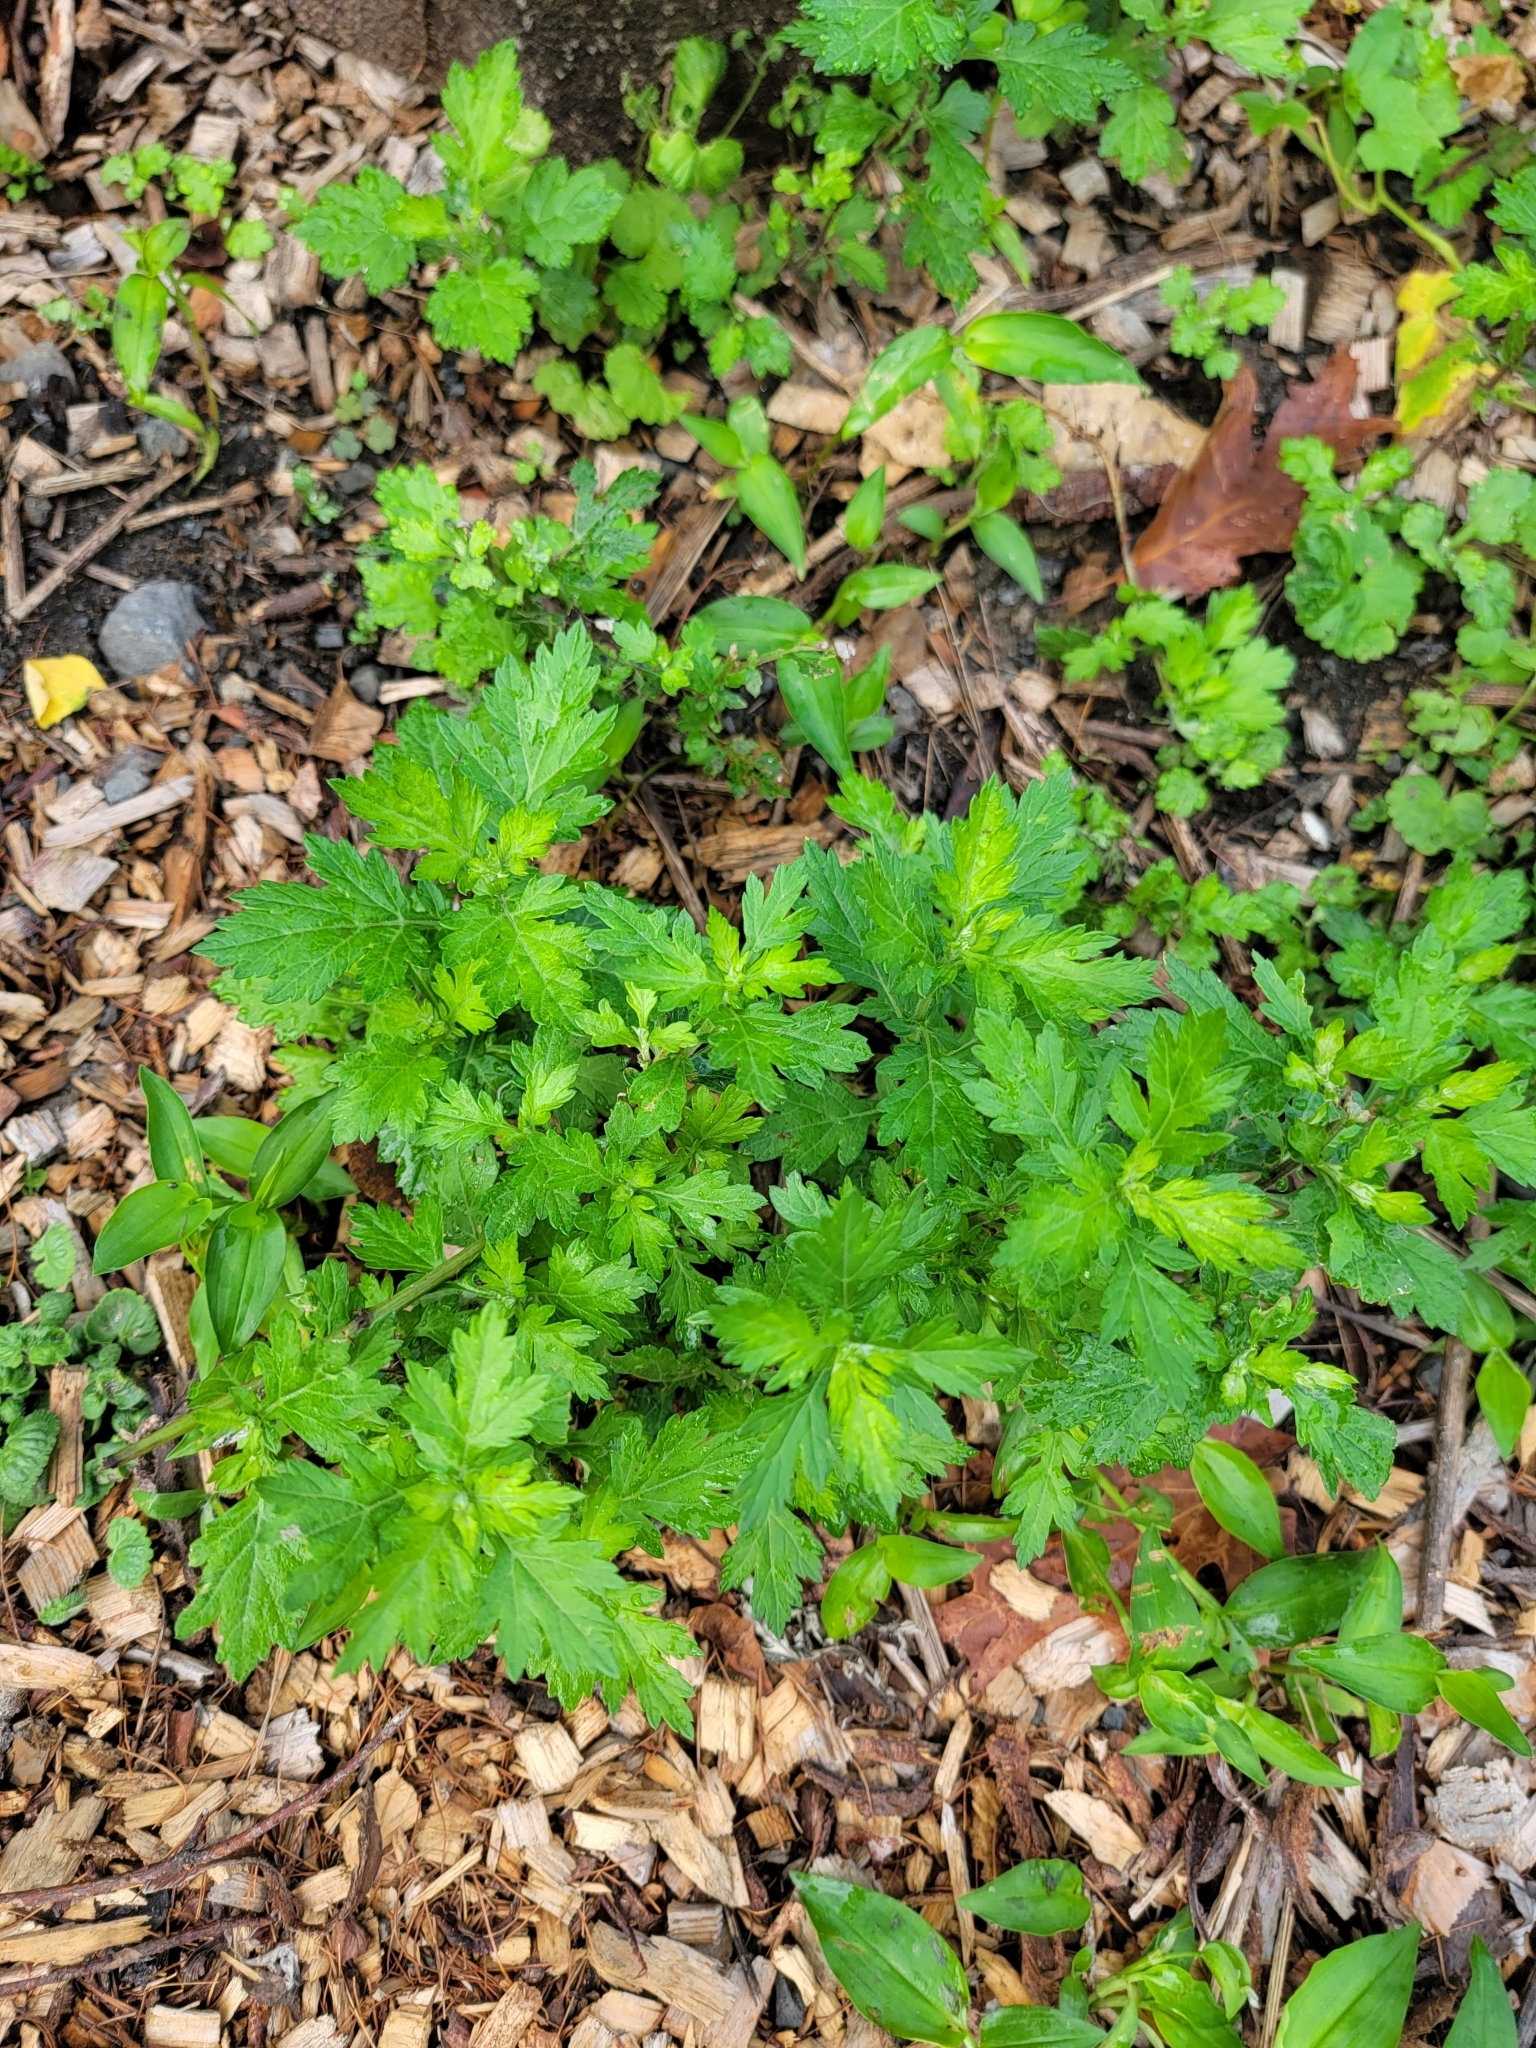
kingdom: Plantae
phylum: Tracheophyta
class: Magnoliopsida
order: Asterales
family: Asteraceae
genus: Artemisia
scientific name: Artemisia vulgaris
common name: Mugwort
